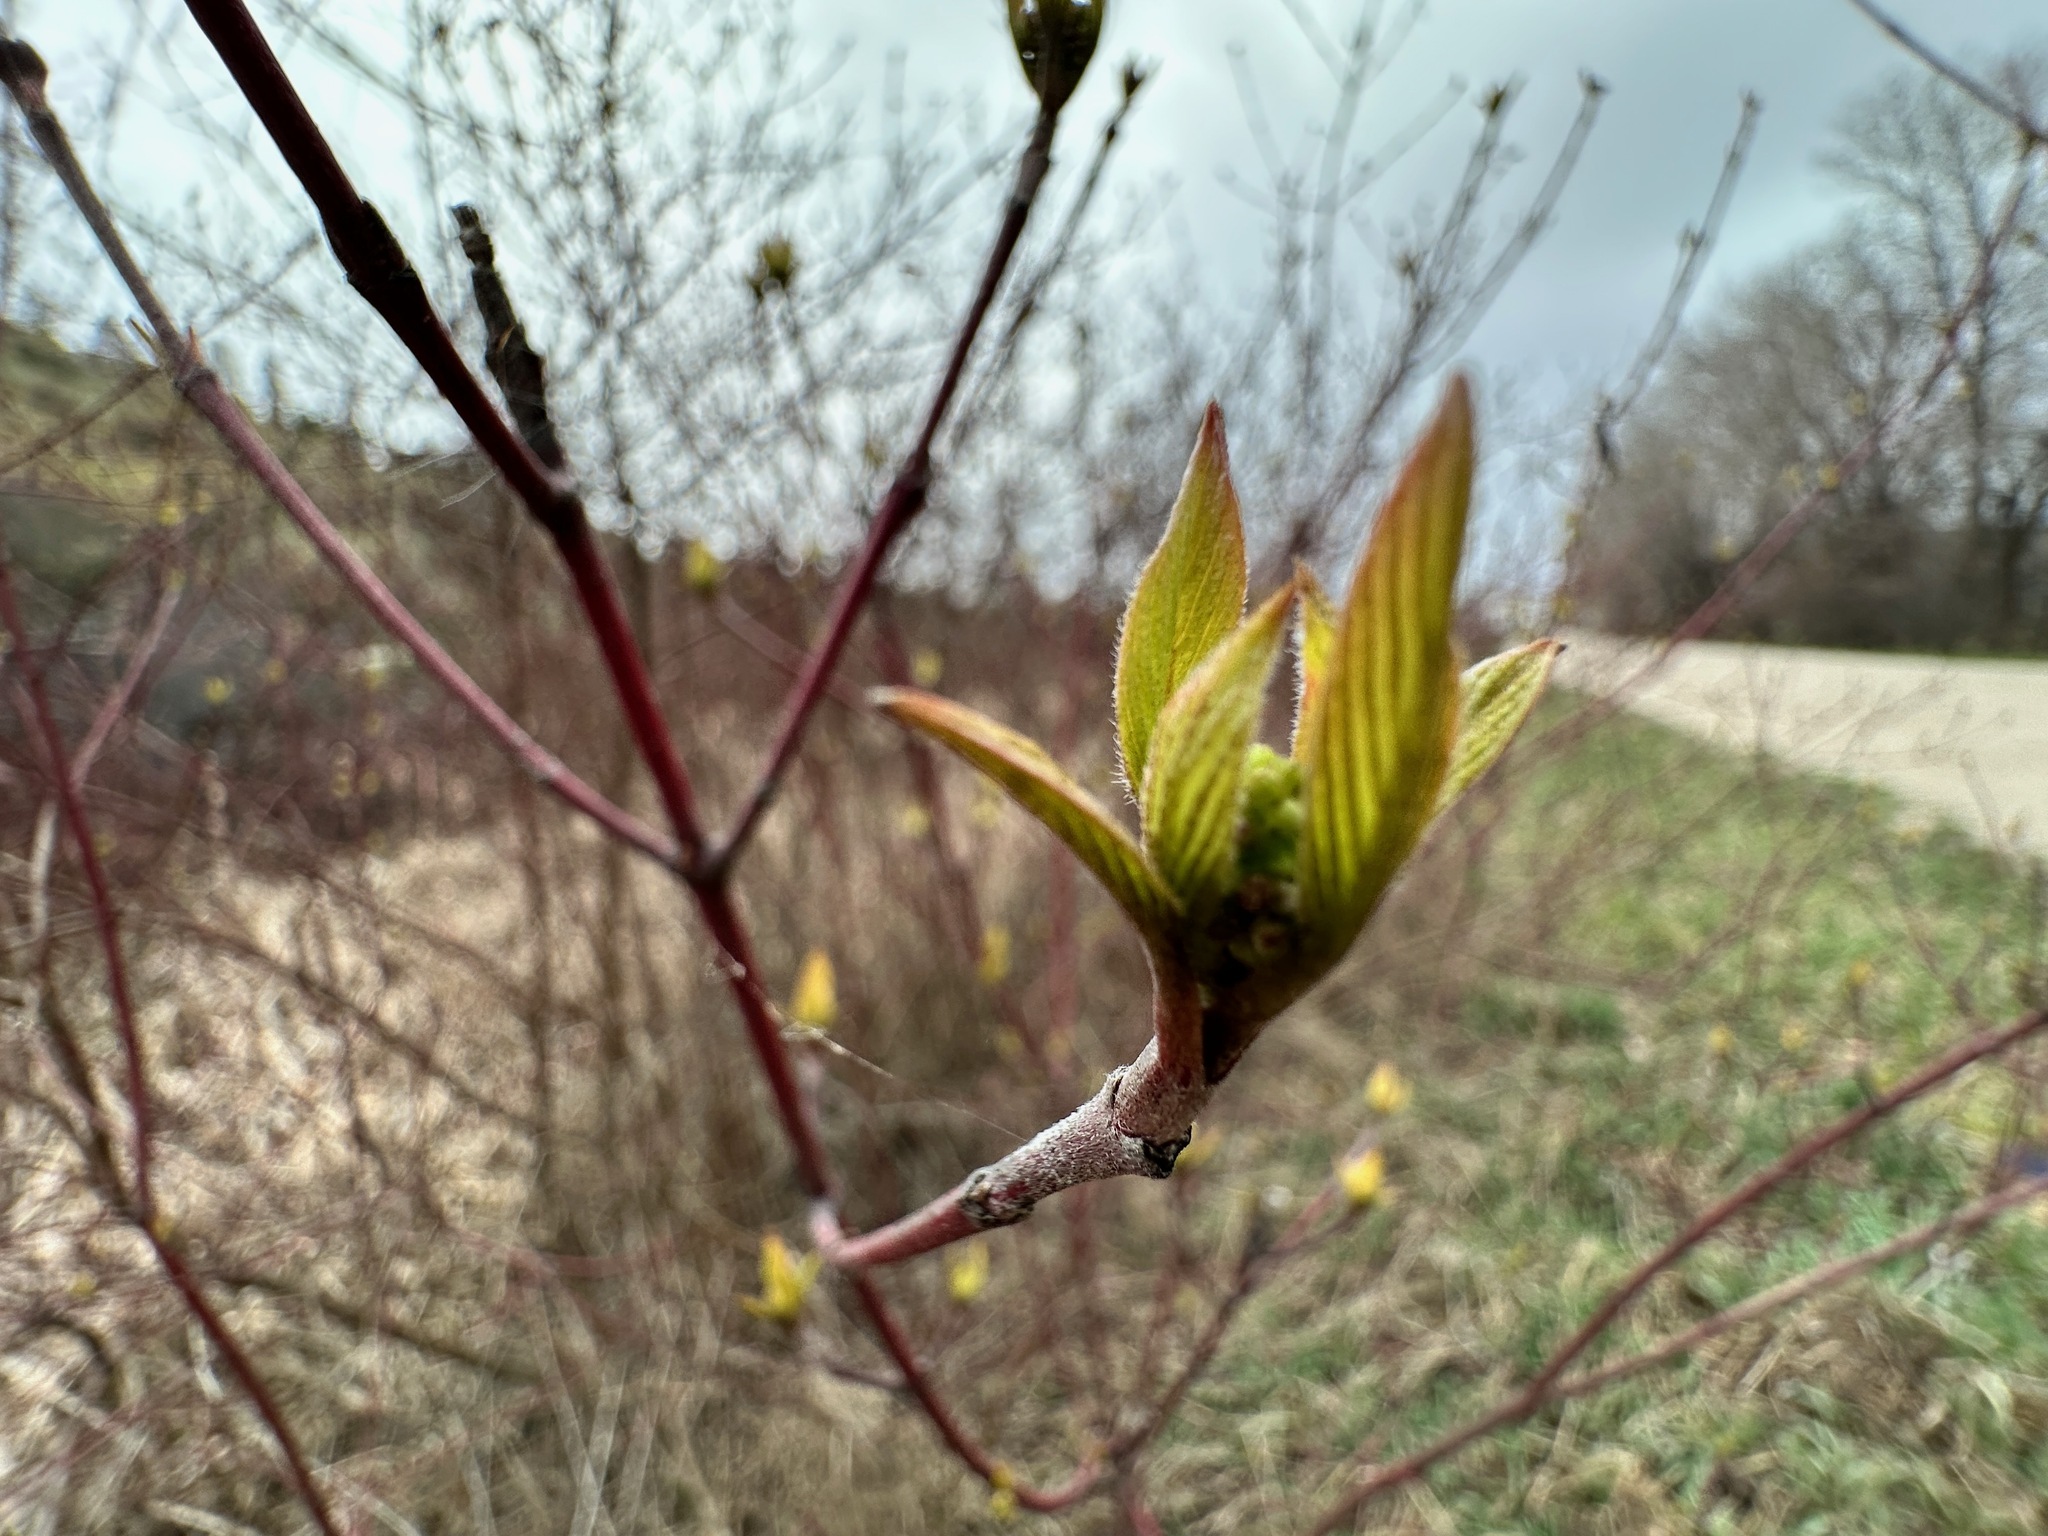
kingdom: Plantae
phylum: Tracheophyta
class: Magnoliopsida
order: Cornales
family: Cornaceae
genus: Cornus
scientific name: Cornus sericea
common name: Red-osier dogwood
